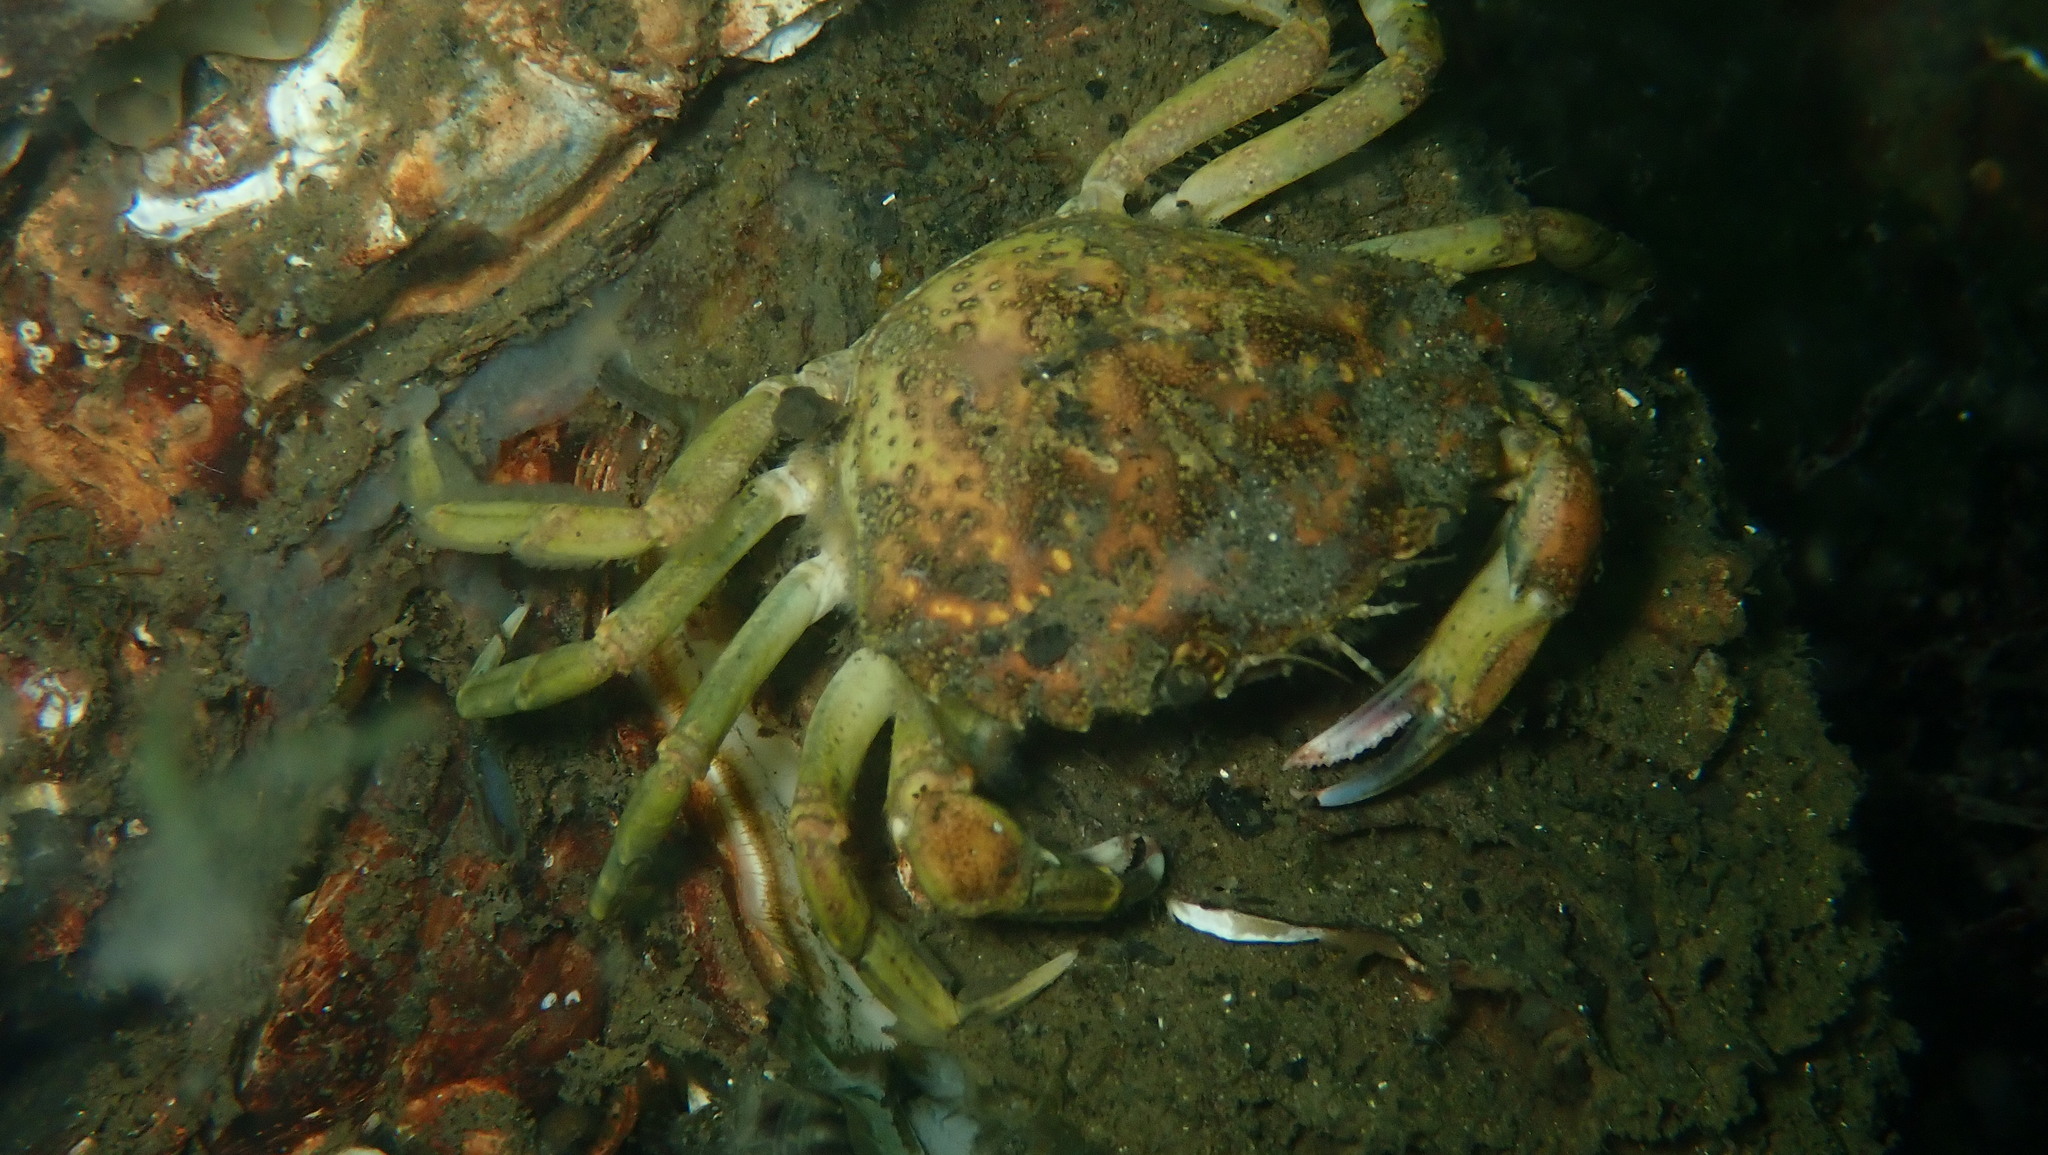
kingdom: Animalia
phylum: Arthropoda
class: Malacostraca
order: Decapoda
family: Carcinidae
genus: Carcinus
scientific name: Carcinus maenas
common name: European green crab
